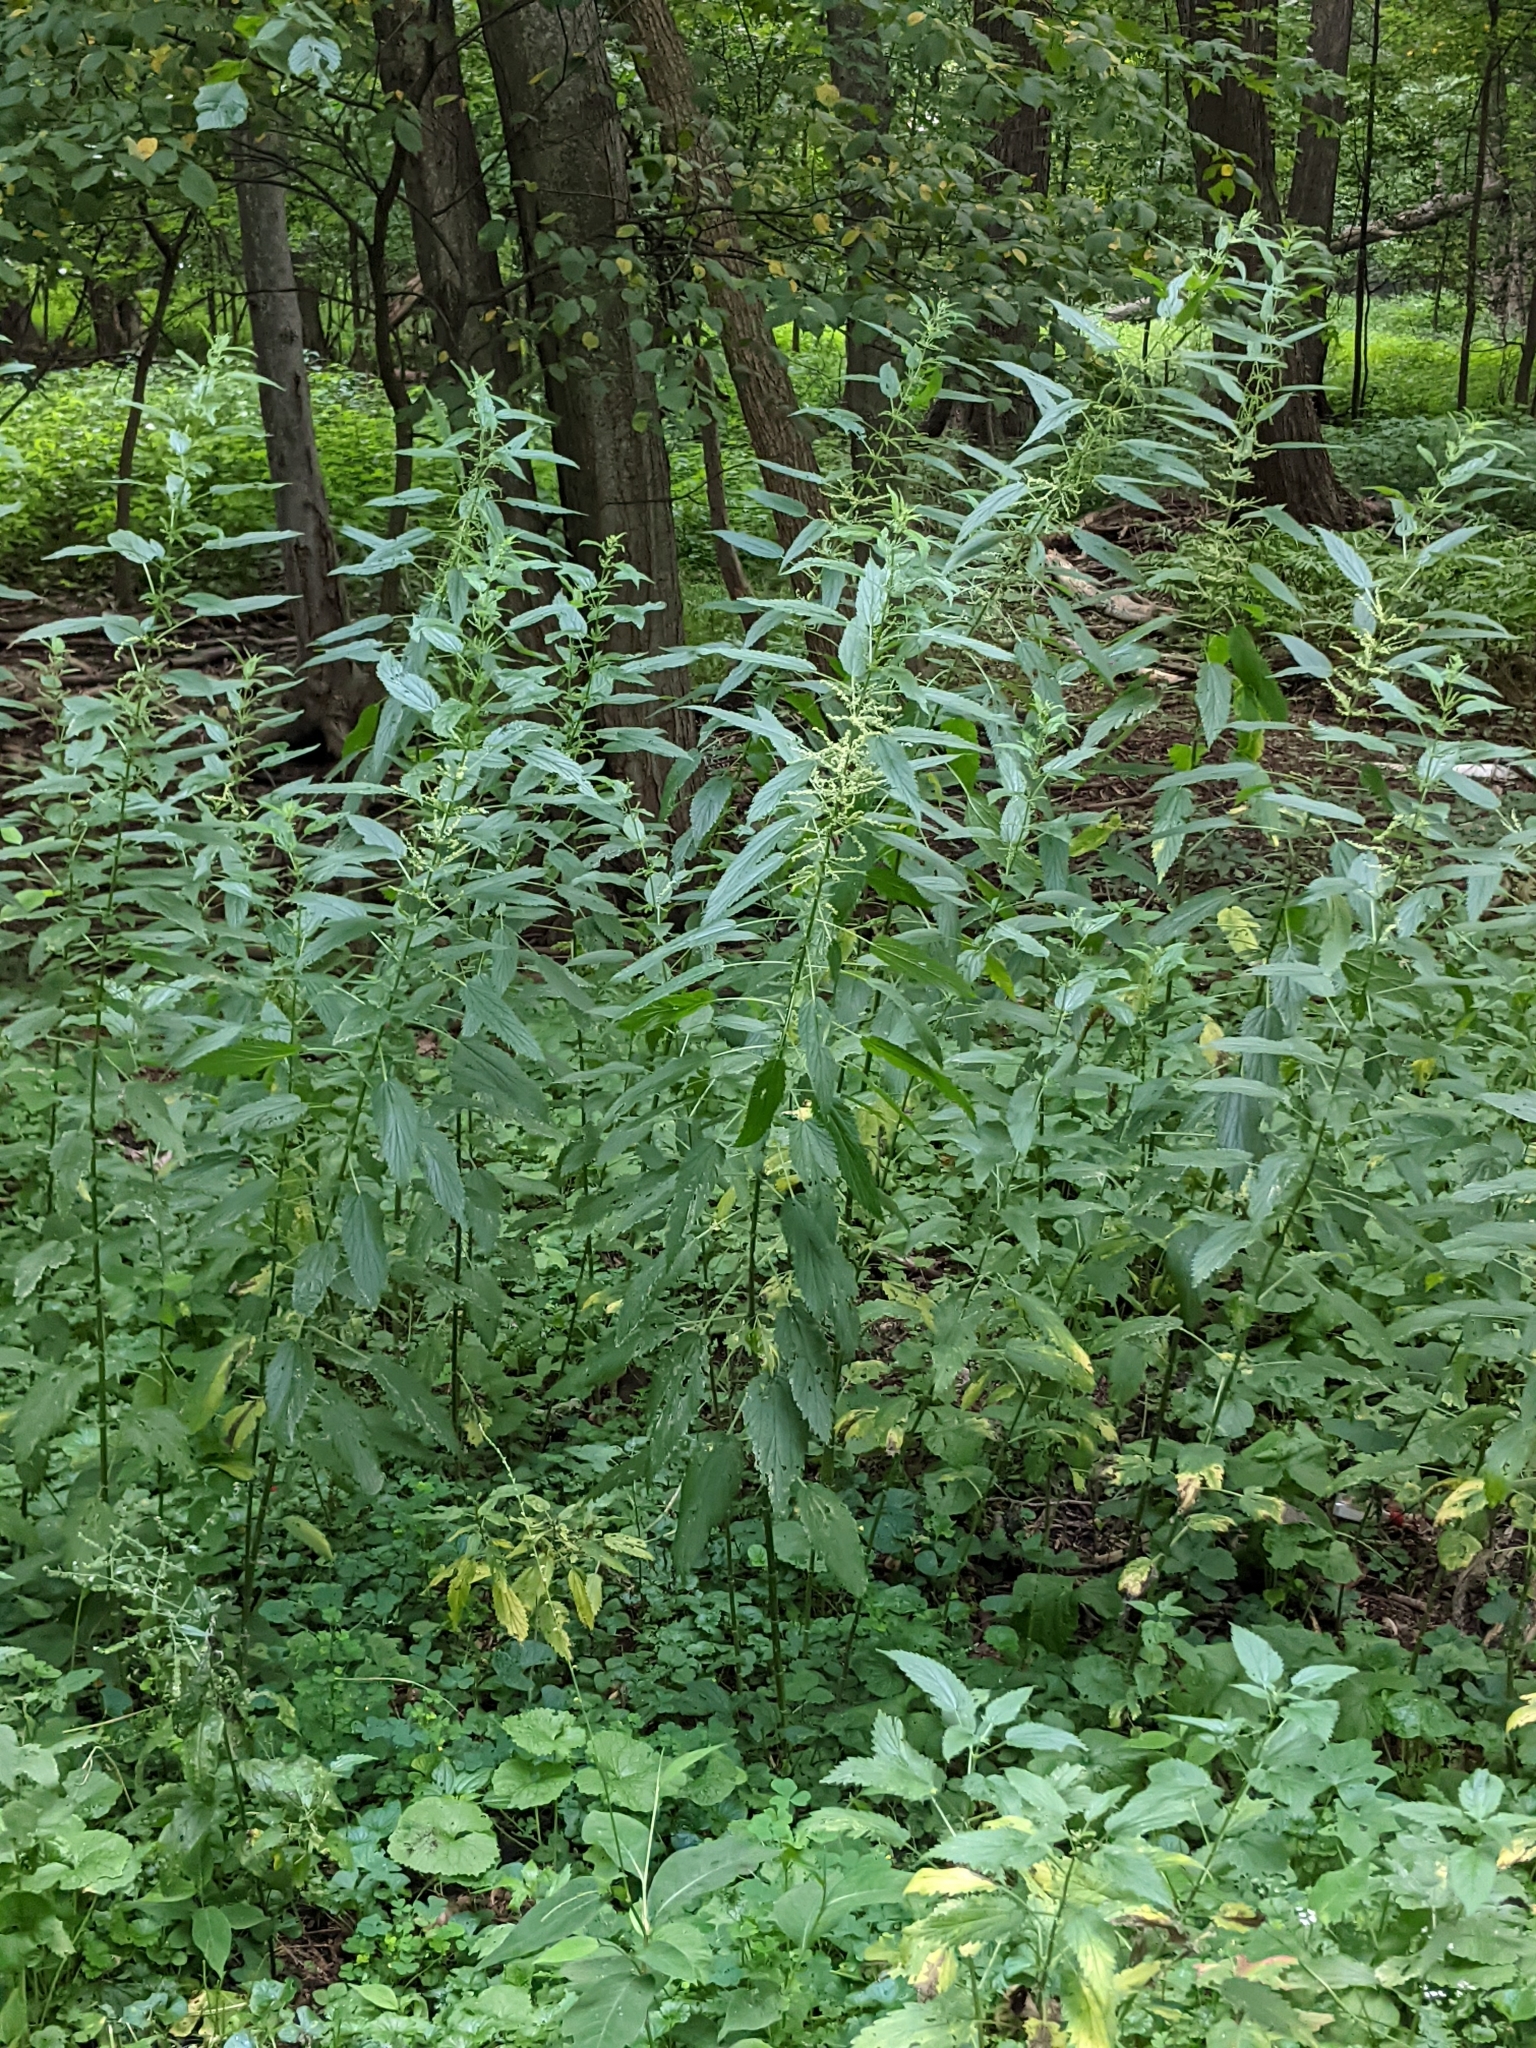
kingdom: Plantae
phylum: Tracheophyta
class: Magnoliopsida
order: Rosales
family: Urticaceae
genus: Urtica
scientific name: Urtica dioica
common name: Common nettle
